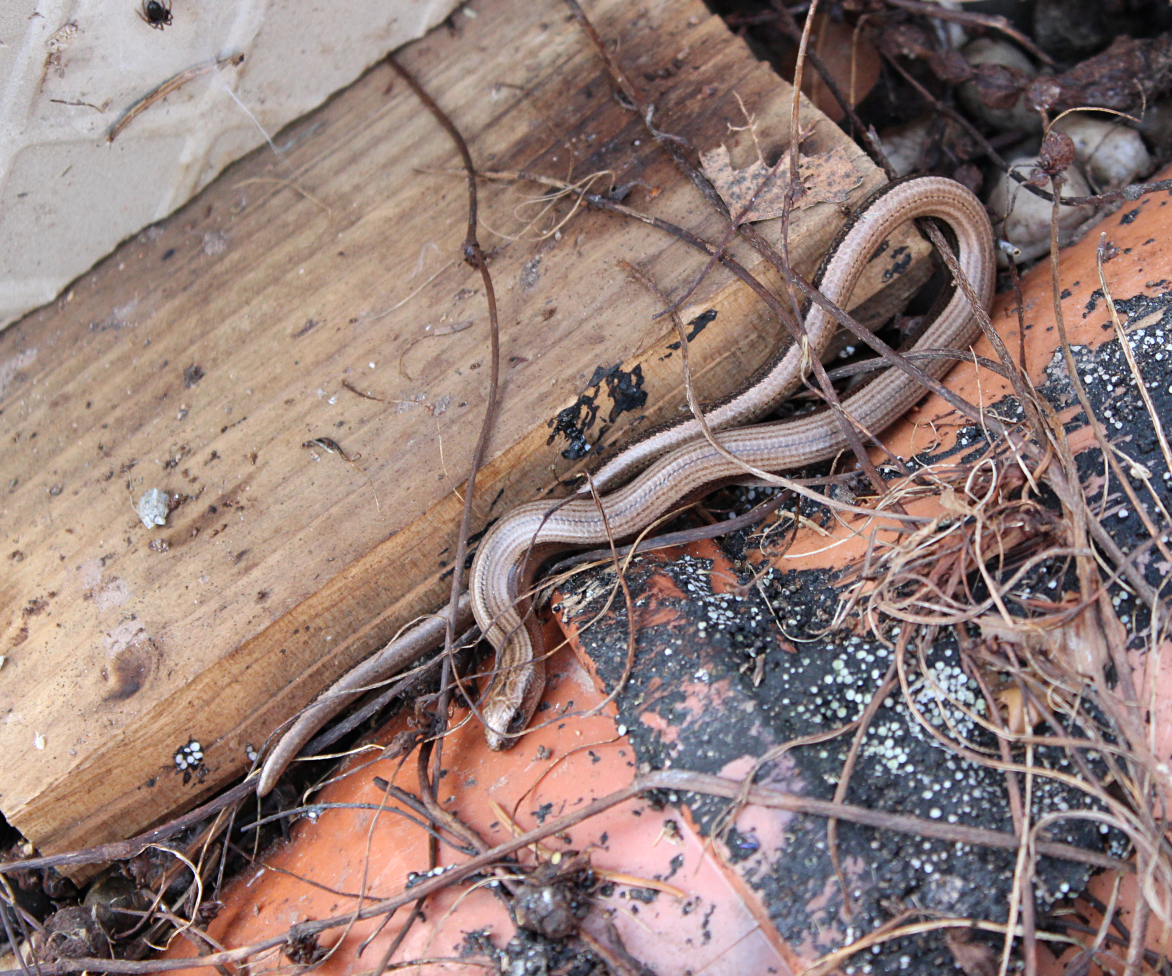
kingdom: Animalia
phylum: Chordata
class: Squamata
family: Anguidae
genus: Anguis
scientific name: Anguis fragilis
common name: Slow worm
